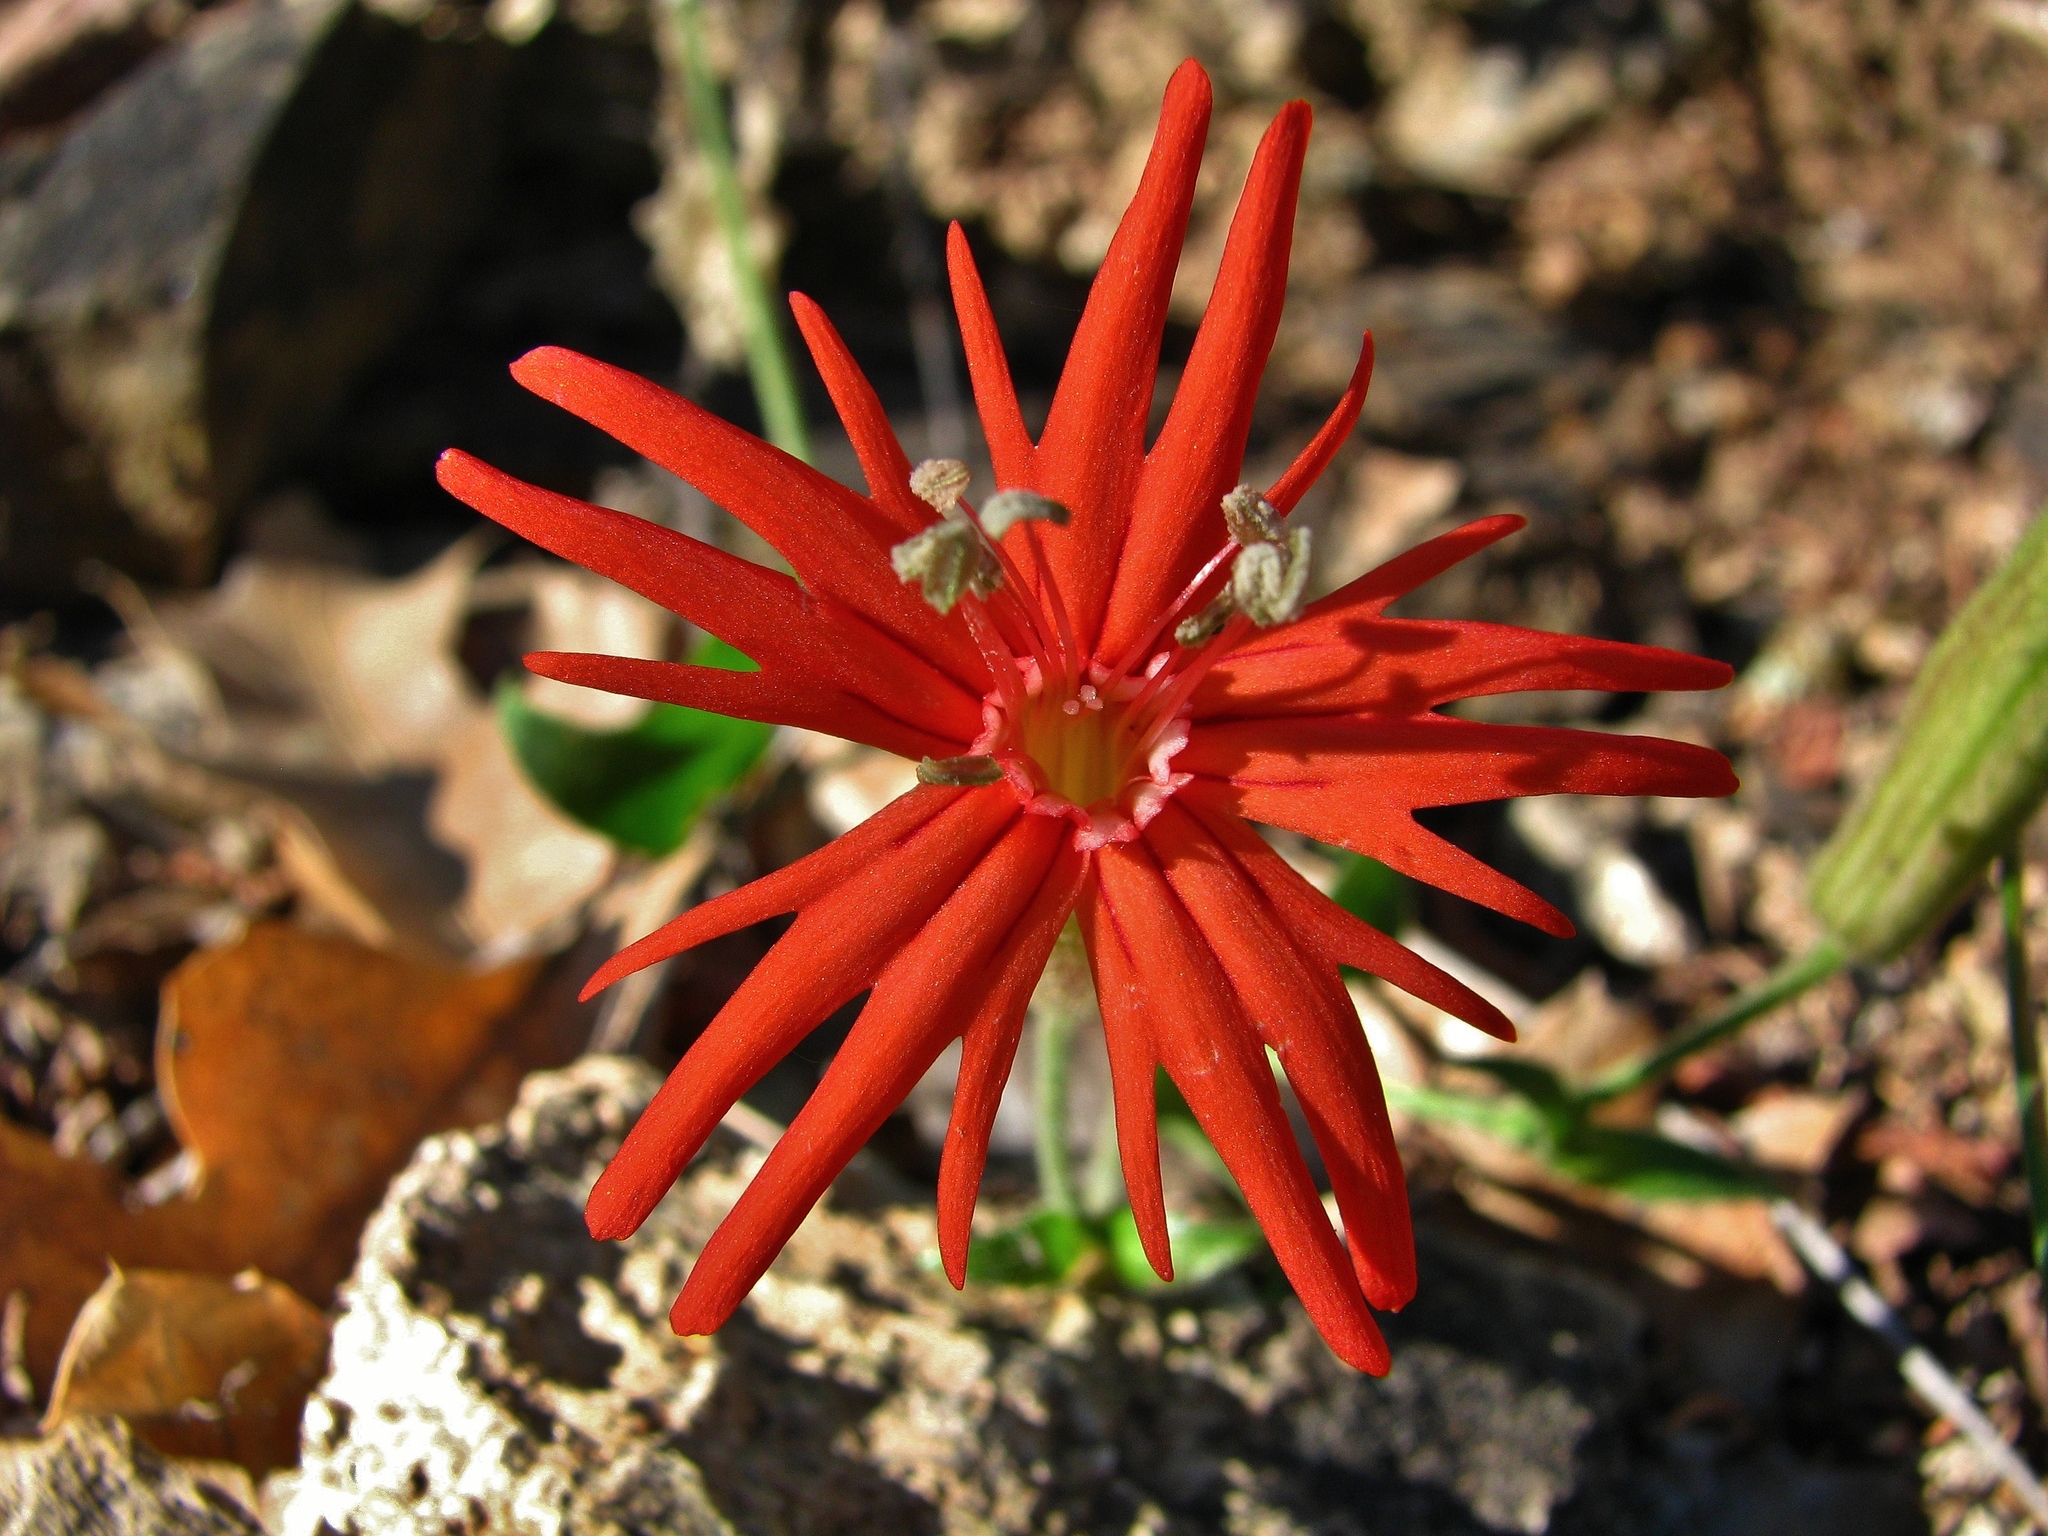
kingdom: Plantae
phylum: Tracheophyta
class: Magnoliopsida
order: Caryophyllales
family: Caryophyllaceae
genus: Silene
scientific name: Silene laciniata
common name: Indian-pink
